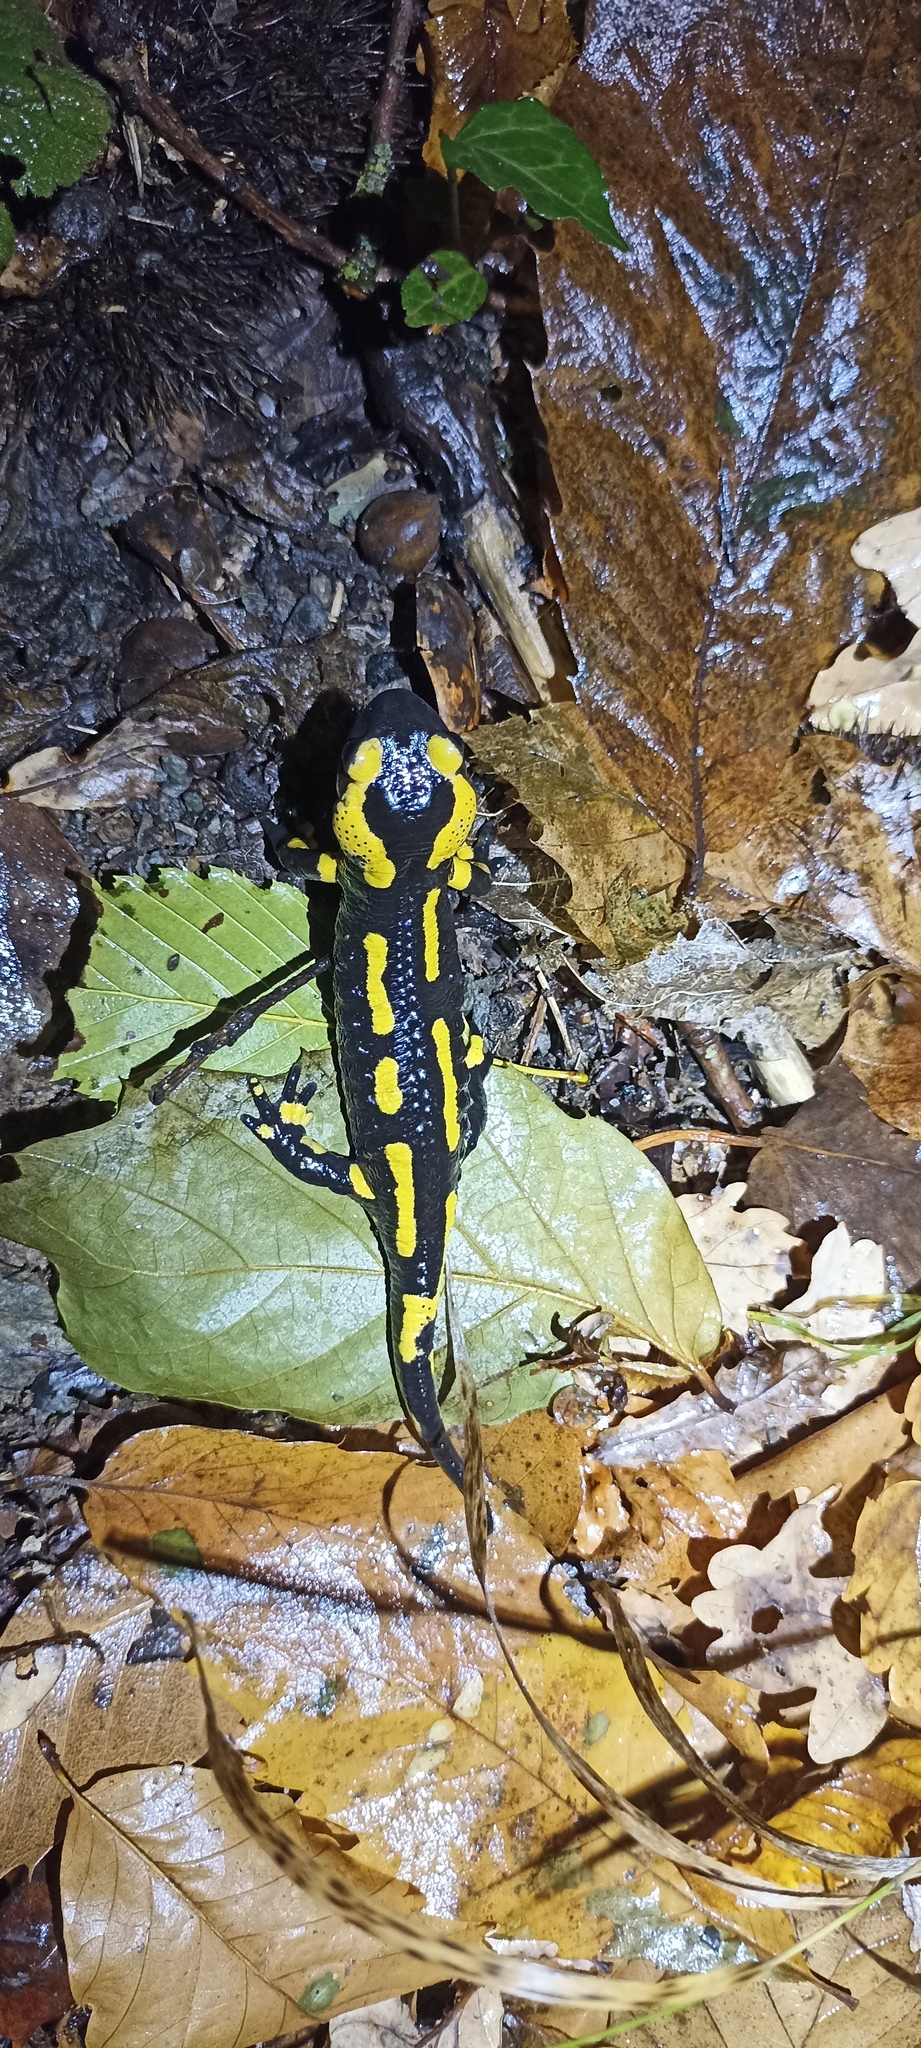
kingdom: Animalia
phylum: Chordata
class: Amphibia
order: Caudata
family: Salamandridae
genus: Salamandra
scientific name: Salamandra salamandra
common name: Fire salamander
